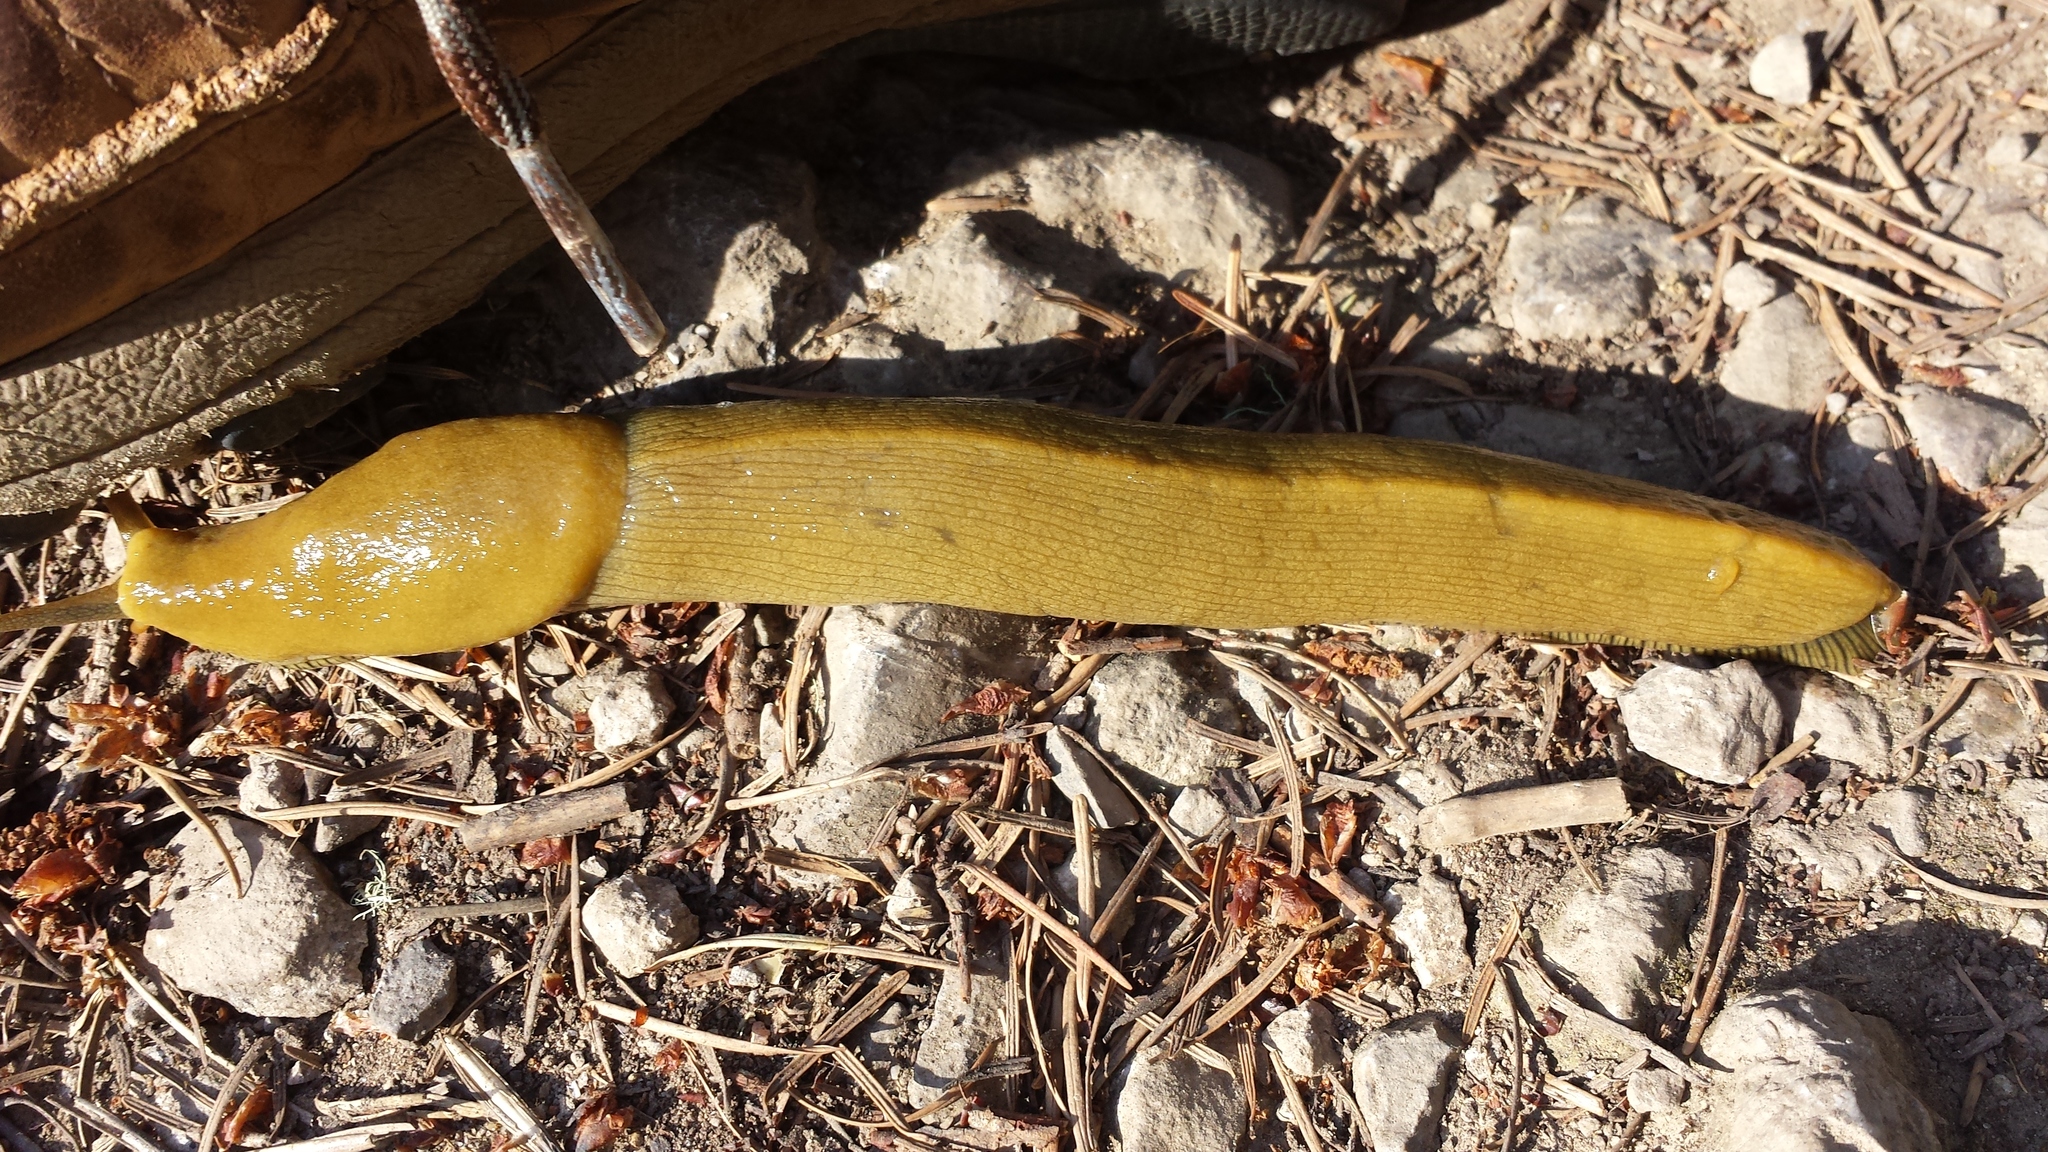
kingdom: Animalia
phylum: Mollusca
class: Gastropoda
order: Stylommatophora
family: Ariolimacidae
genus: Ariolimax
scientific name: Ariolimax buttoni
